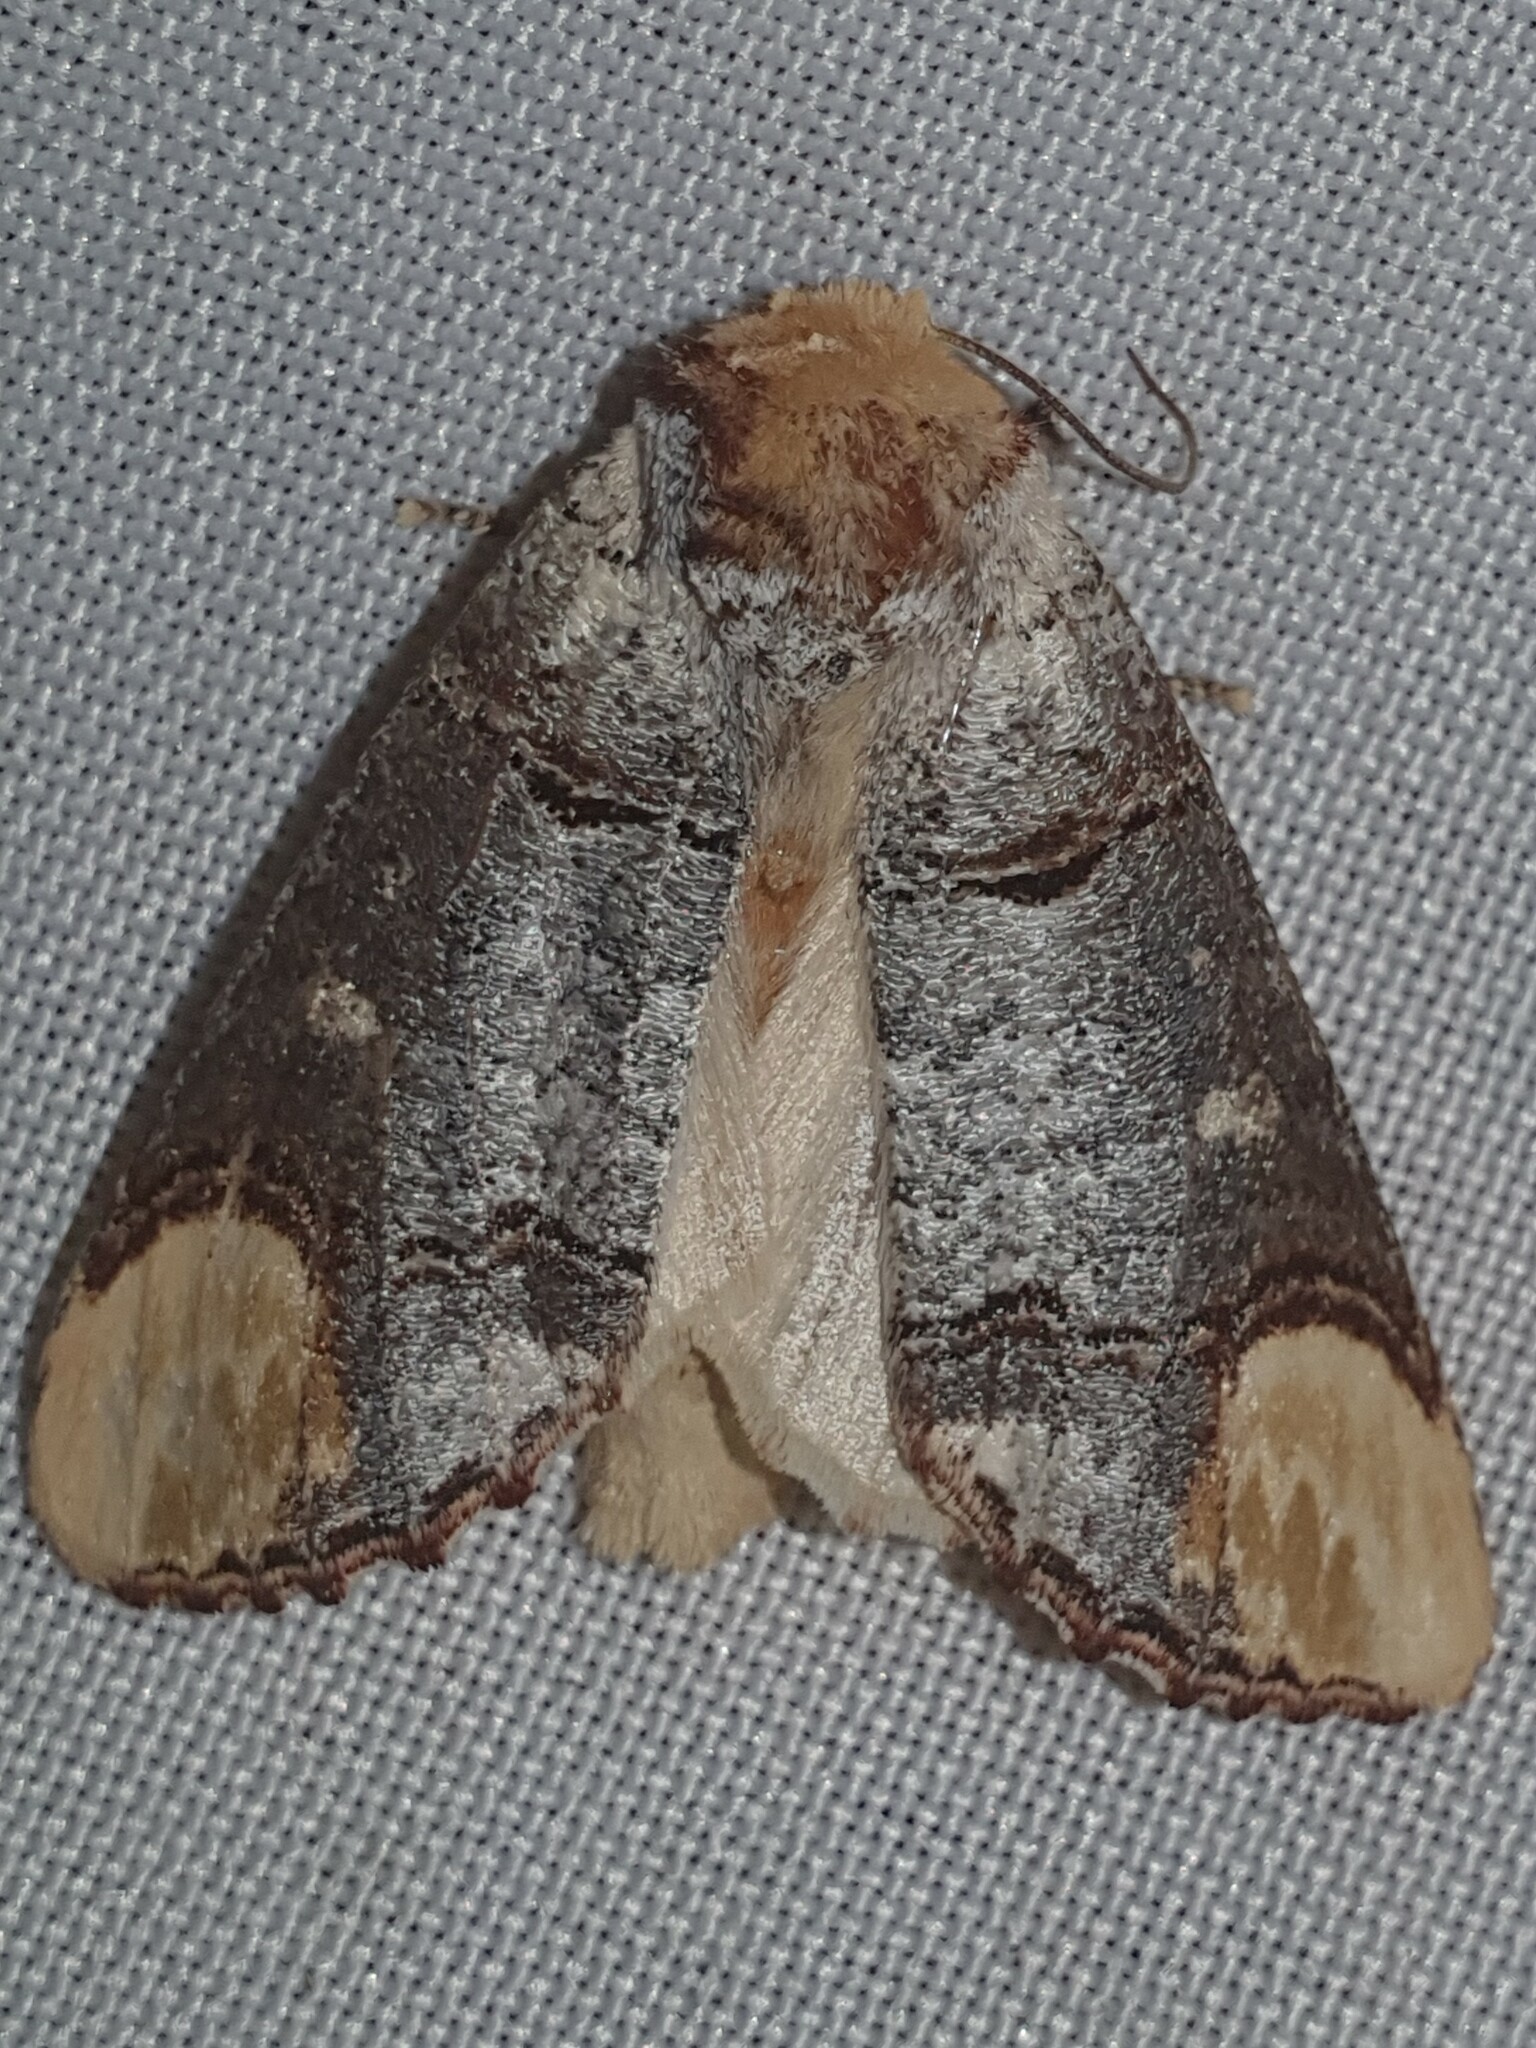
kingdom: Animalia
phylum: Arthropoda
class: Insecta
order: Lepidoptera
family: Notodontidae
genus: Phalera
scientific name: Phalera bucephala
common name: Buff-tip
